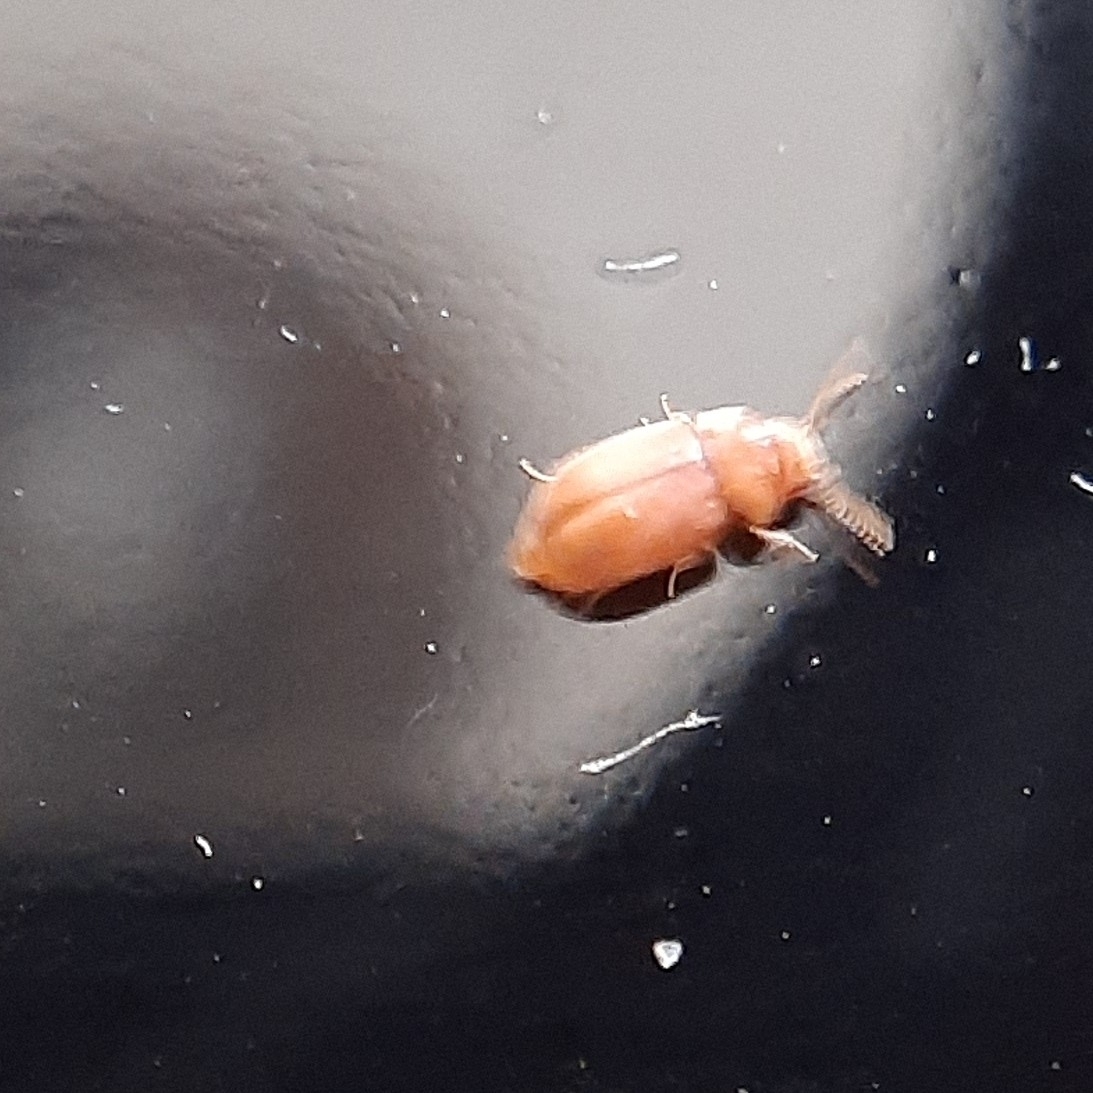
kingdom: Animalia
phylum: Arthropoda
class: Insecta
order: Coleoptera
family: Anobiidae
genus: Lasioderma
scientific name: Lasioderma
